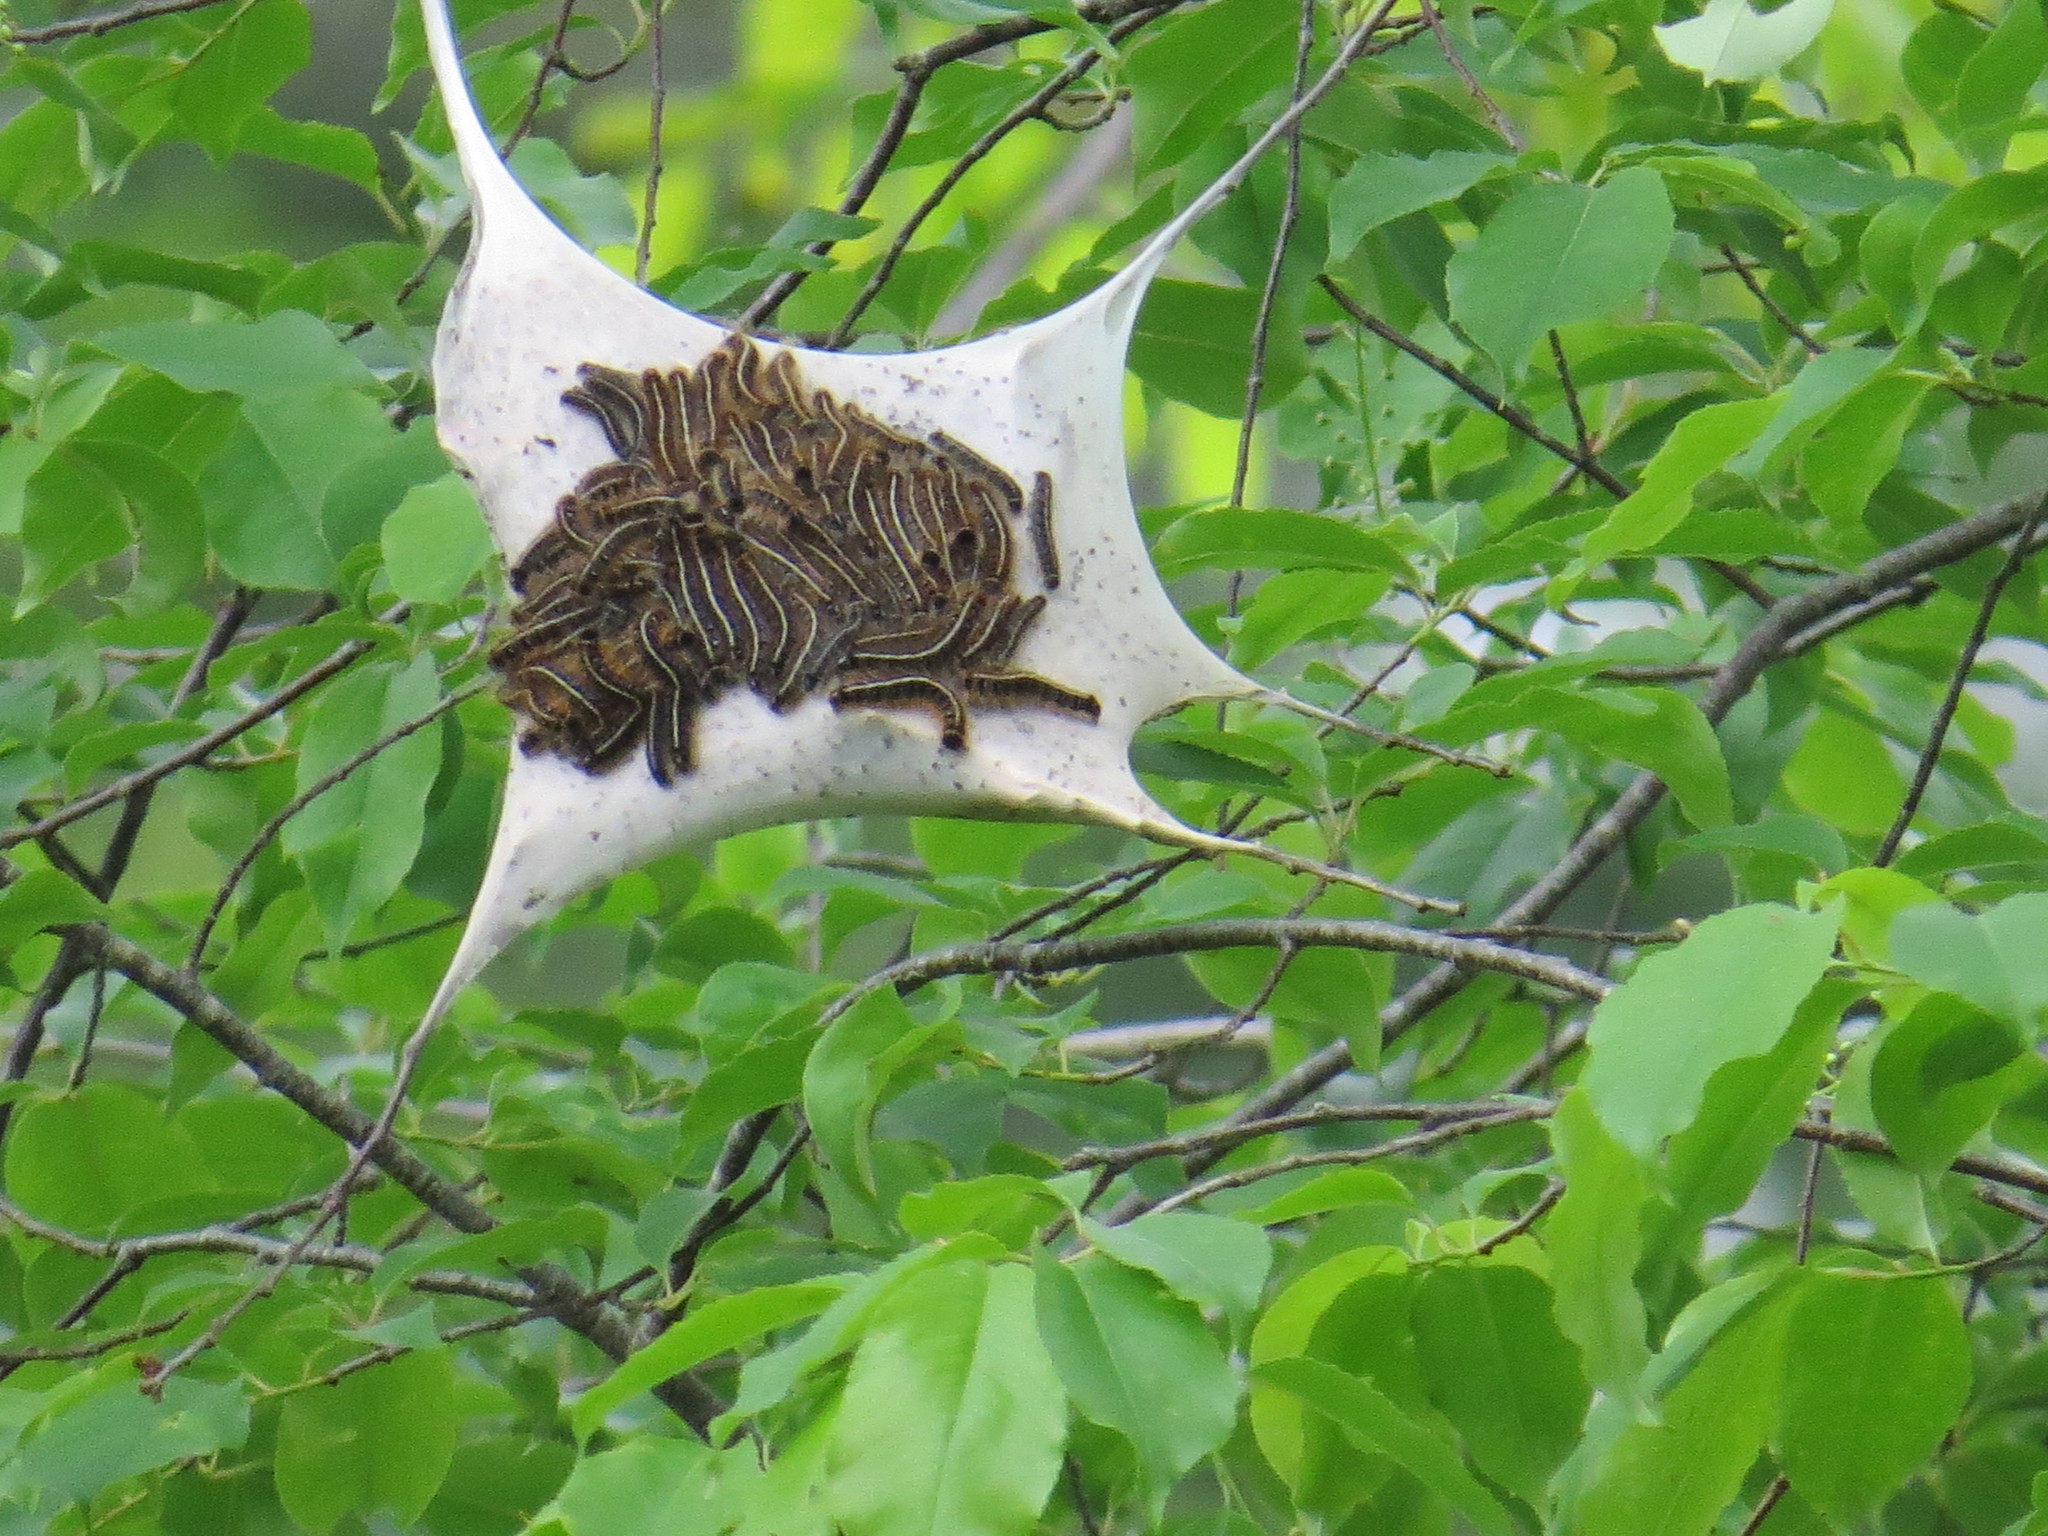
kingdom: Animalia
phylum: Arthropoda
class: Insecta
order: Lepidoptera
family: Lasiocampidae
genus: Malacosoma
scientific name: Malacosoma americana
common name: Eastern tent caterpillar moth
